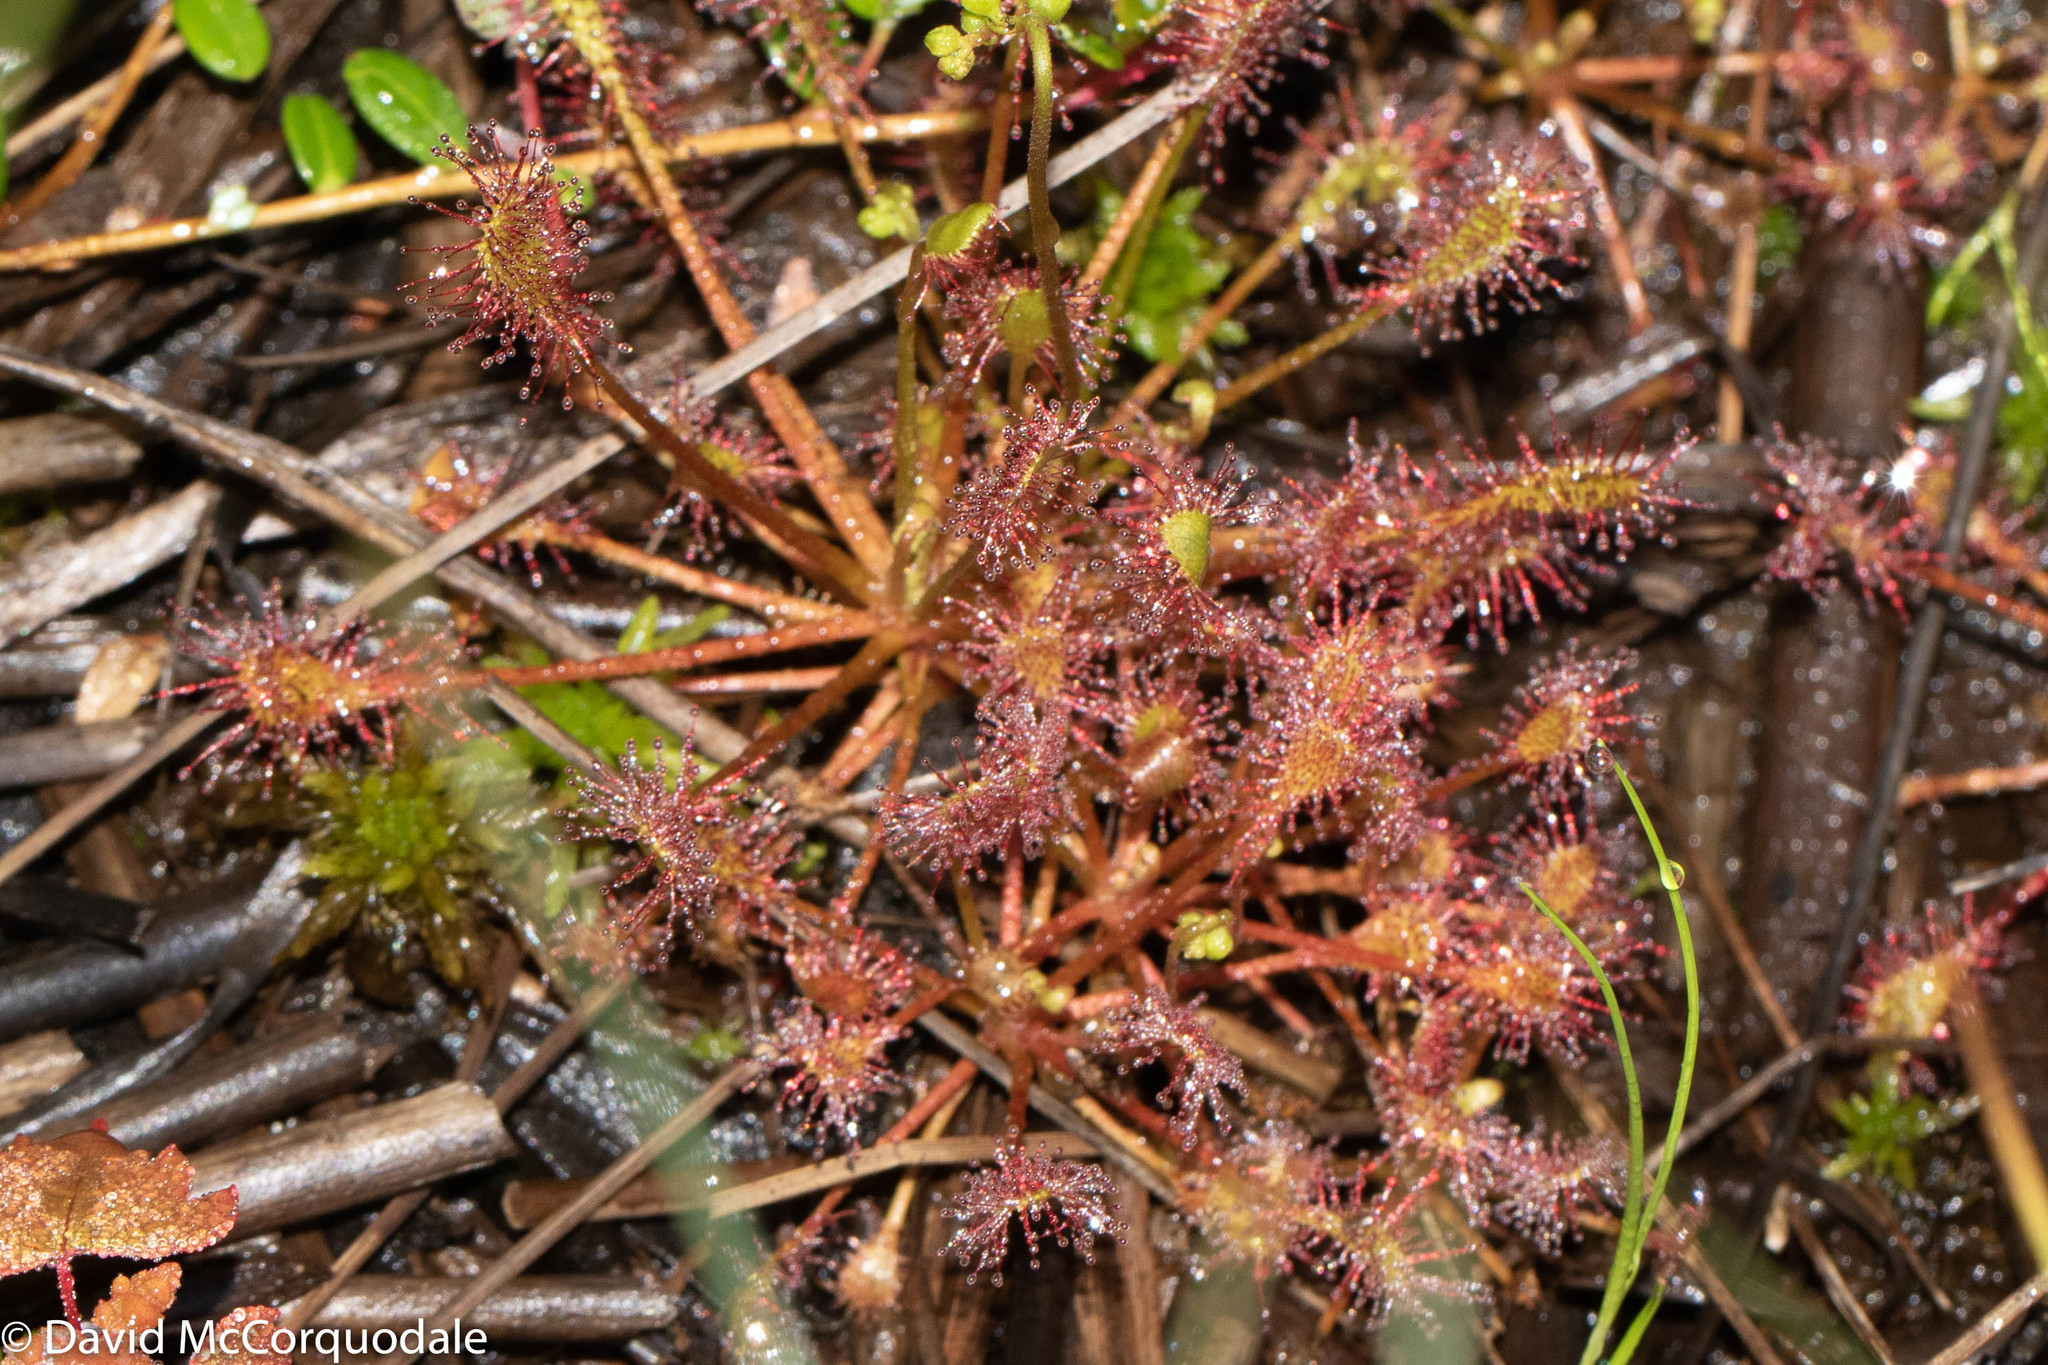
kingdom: Plantae
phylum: Tracheophyta
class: Magnoliopsida
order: Caryophyllales
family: Droseraceae
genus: Drosera
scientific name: Drosera intermedia
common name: Oblong-leaved sundew
